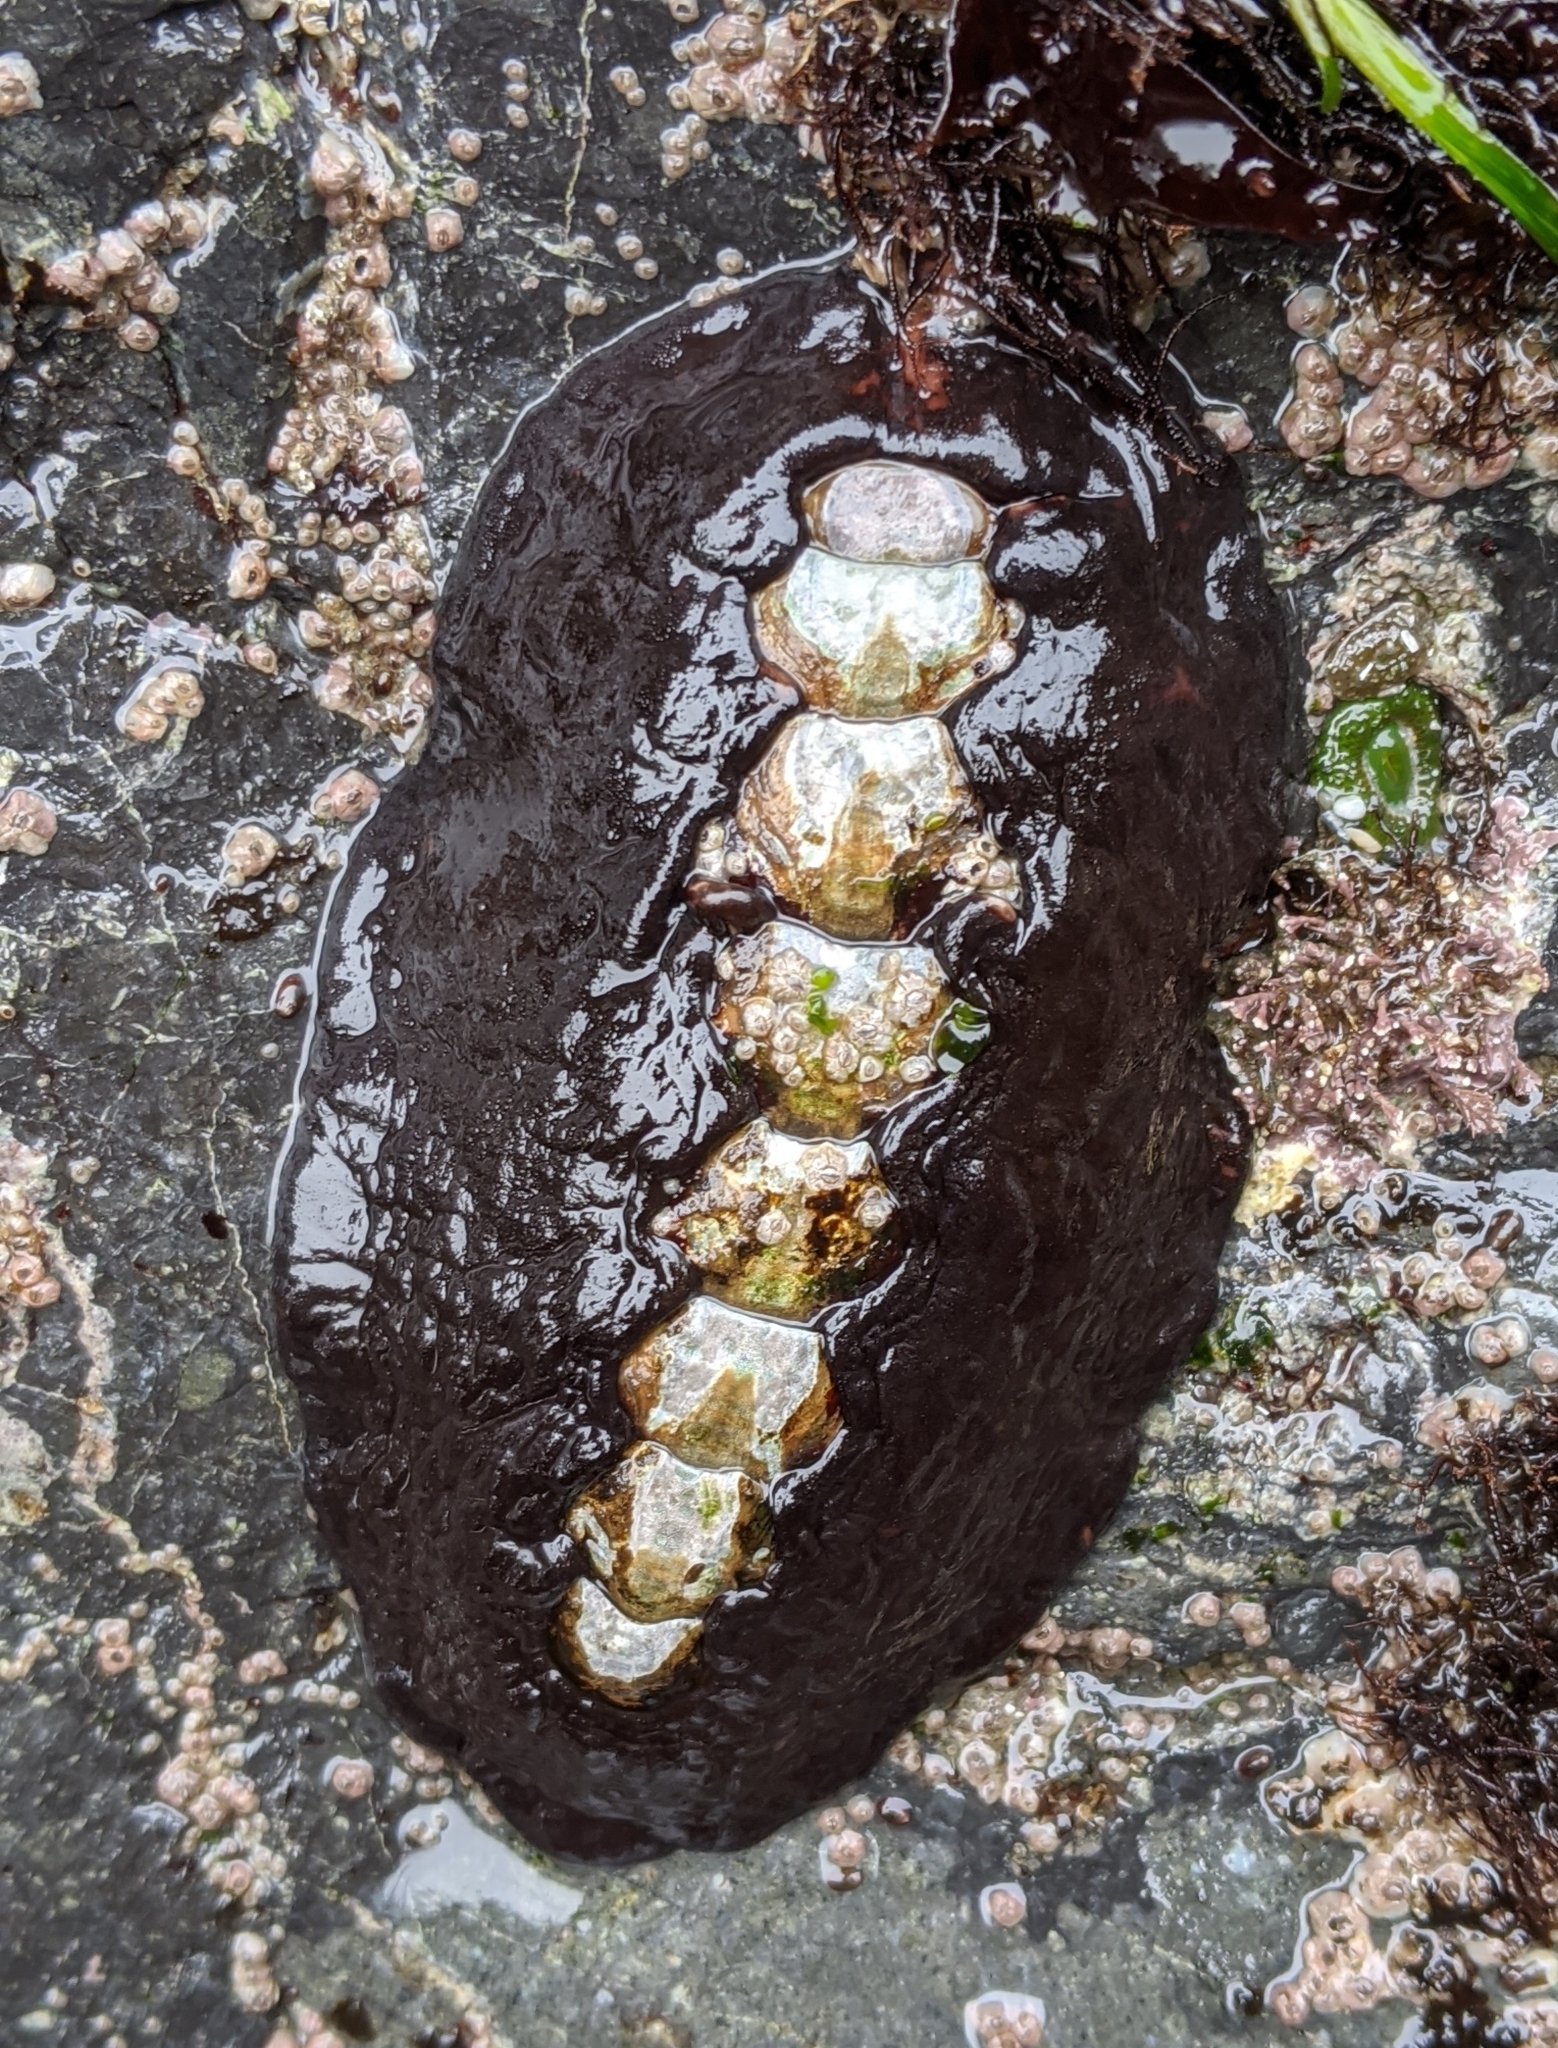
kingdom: Animalia
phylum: Mollusca
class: Polyplacophora
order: Chitonida
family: Mopaliidae
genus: Katharina
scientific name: Katharina tunicata
